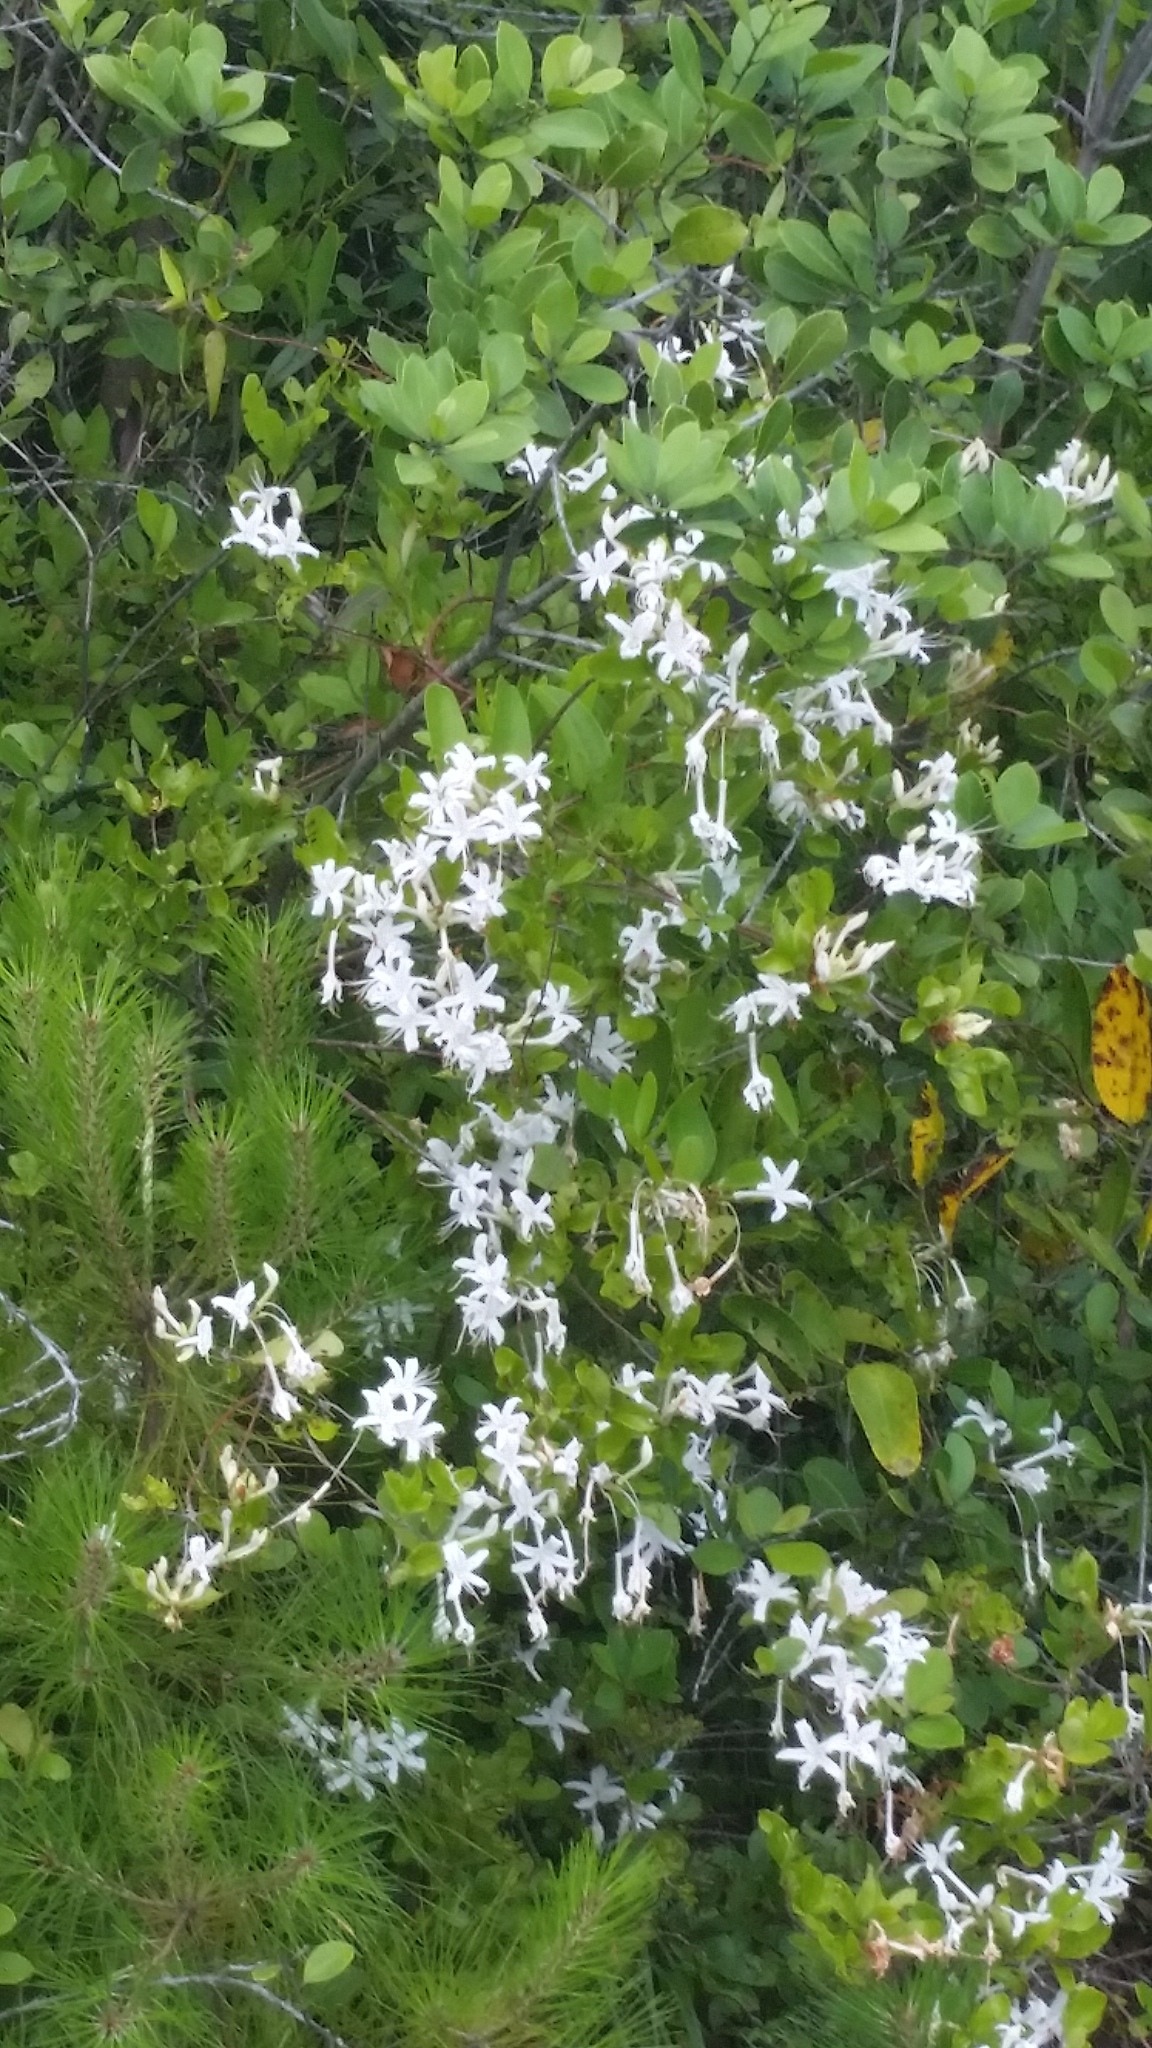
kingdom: Plantae
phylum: Tracheophyta
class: Magnoliopsida
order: Ericales
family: Ericaceae
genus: Rhododendron
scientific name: Rhododendron viscosum
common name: Clammy azalea
